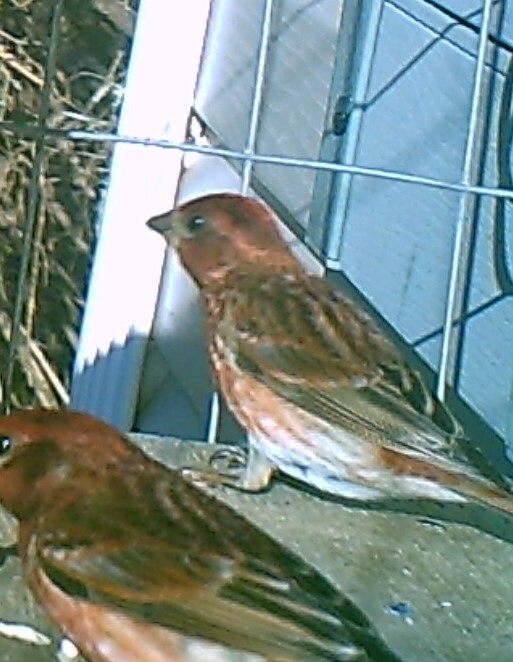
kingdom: Animalia
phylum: Chordata
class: Aves
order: Passeriformes
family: Fringillidae
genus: Haemorhous
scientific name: Haemorhous purpureus
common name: Purple finch
